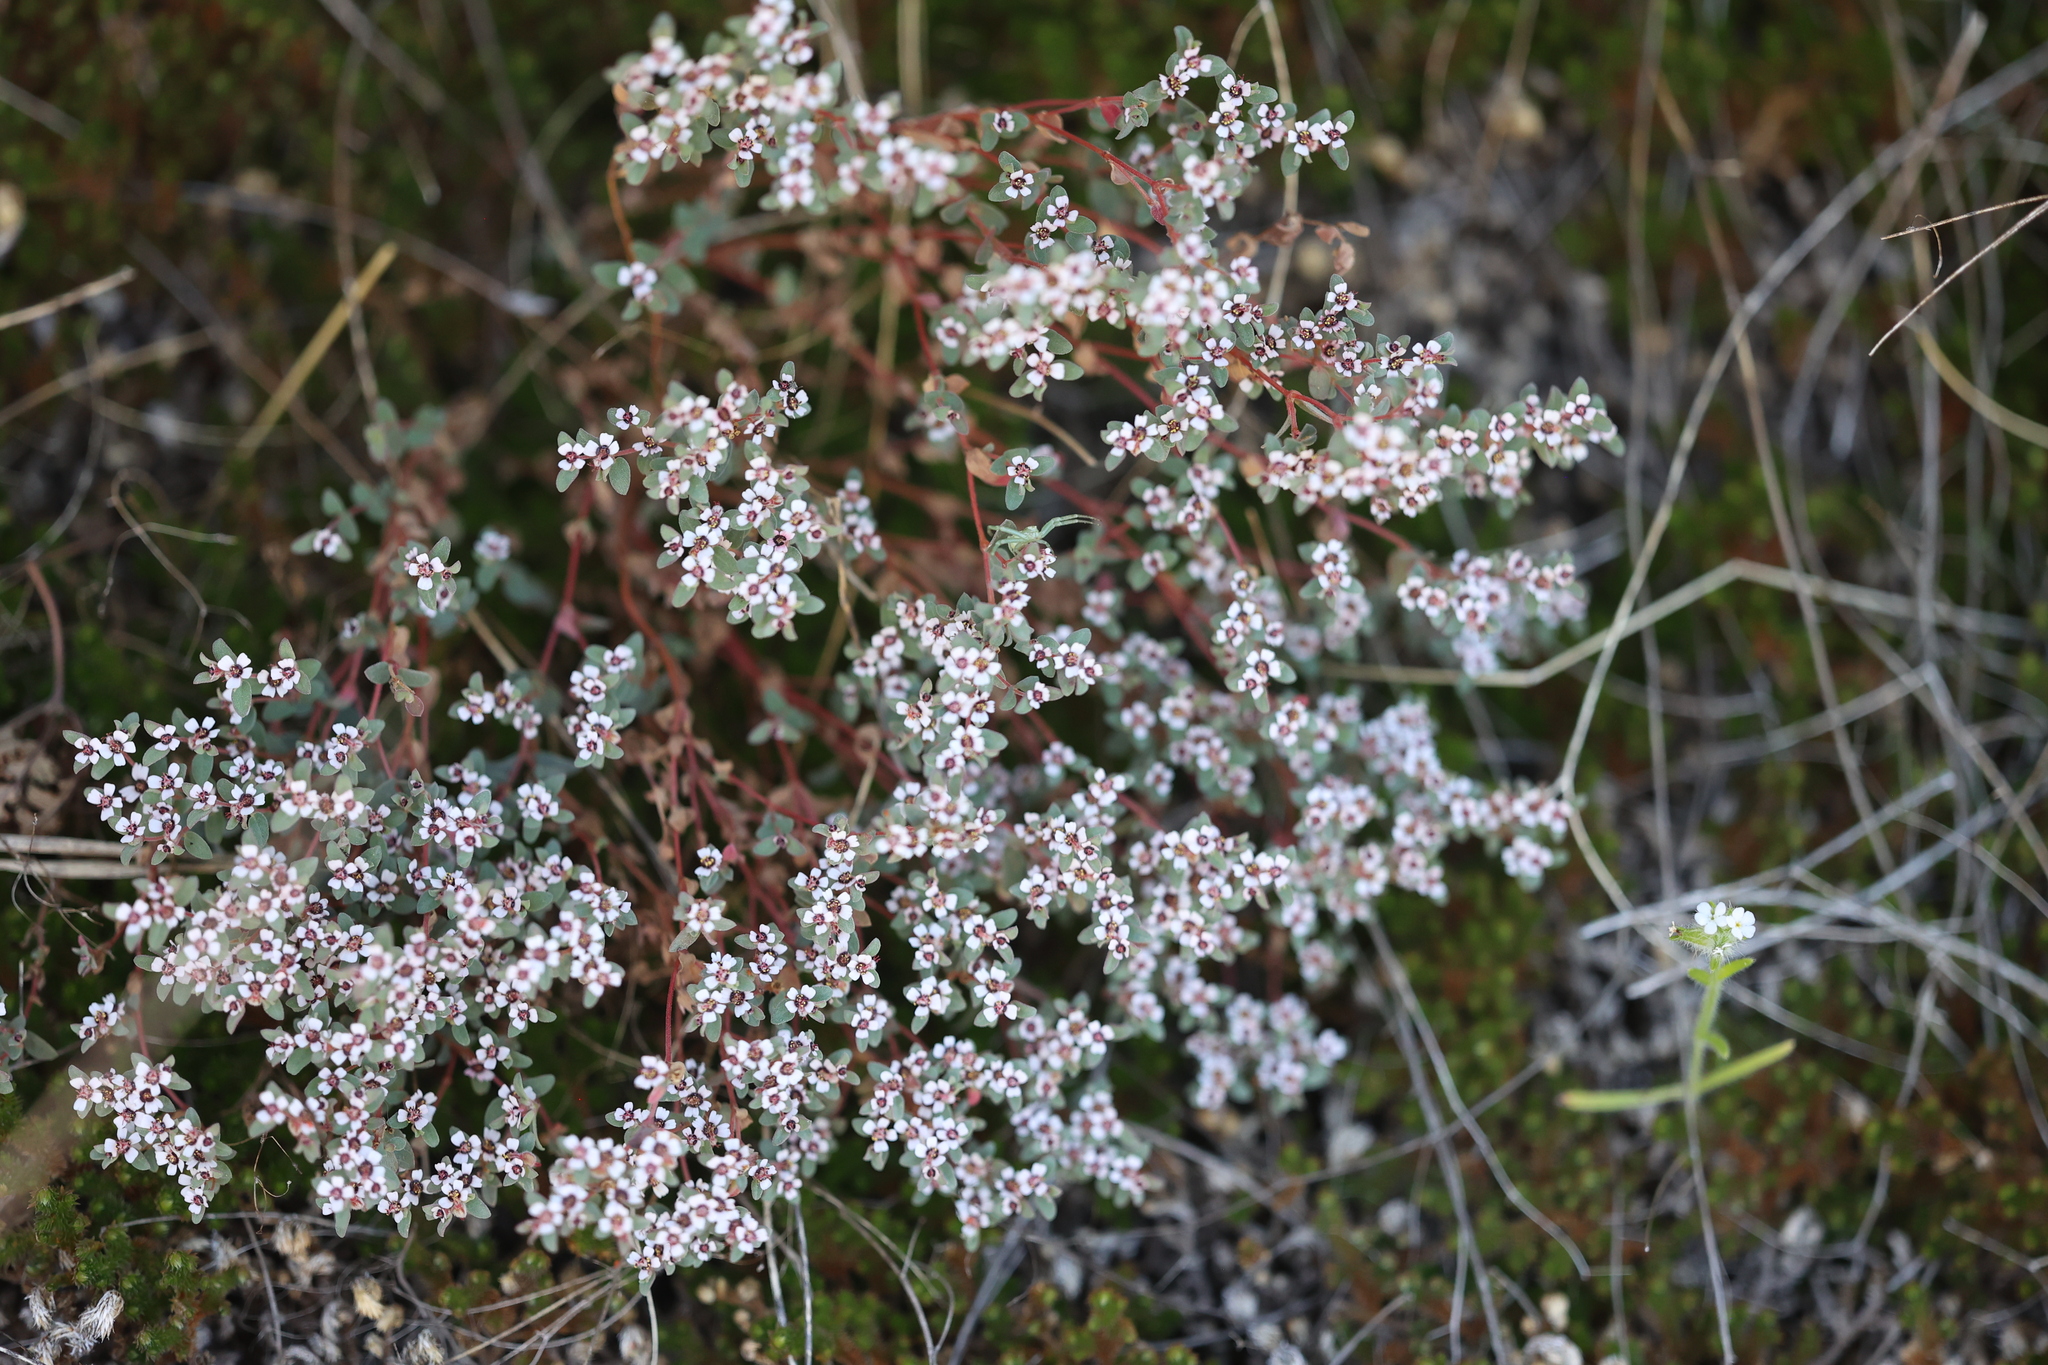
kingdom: Plantae
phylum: Tracheophyta
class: Magnoliopsida
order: Malpighiales
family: Euphorbiaceae
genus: Euphorbia
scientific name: Euphorbia melanadenia
